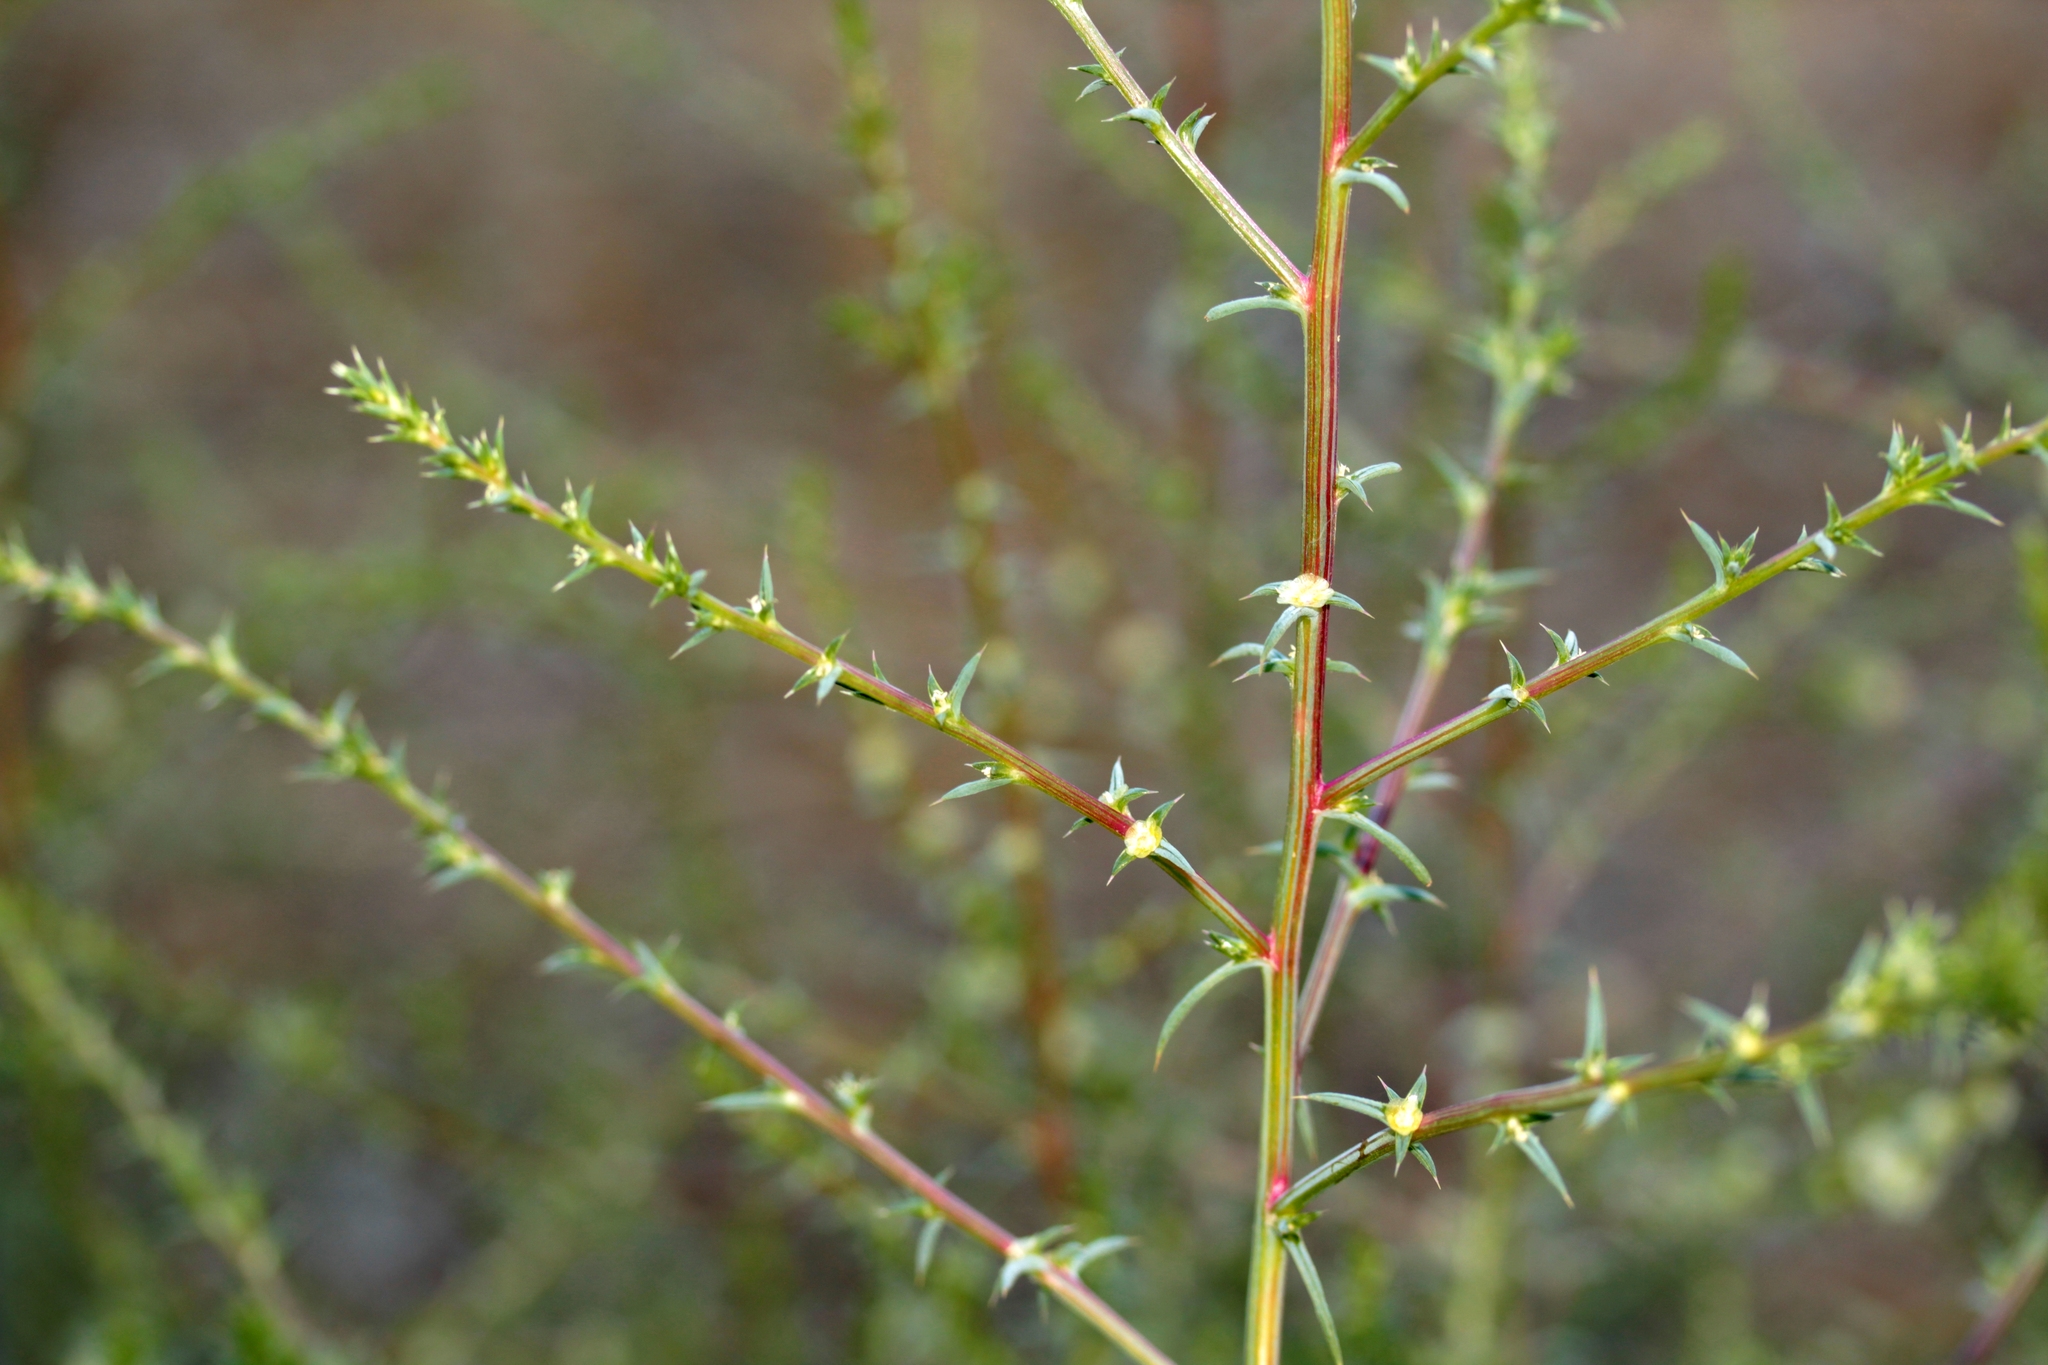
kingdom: Plantae
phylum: Tracheophyta
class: Magnoliopsida
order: Caryophyllales
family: Amaranthaceae
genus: Salsola
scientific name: Salsola australis
